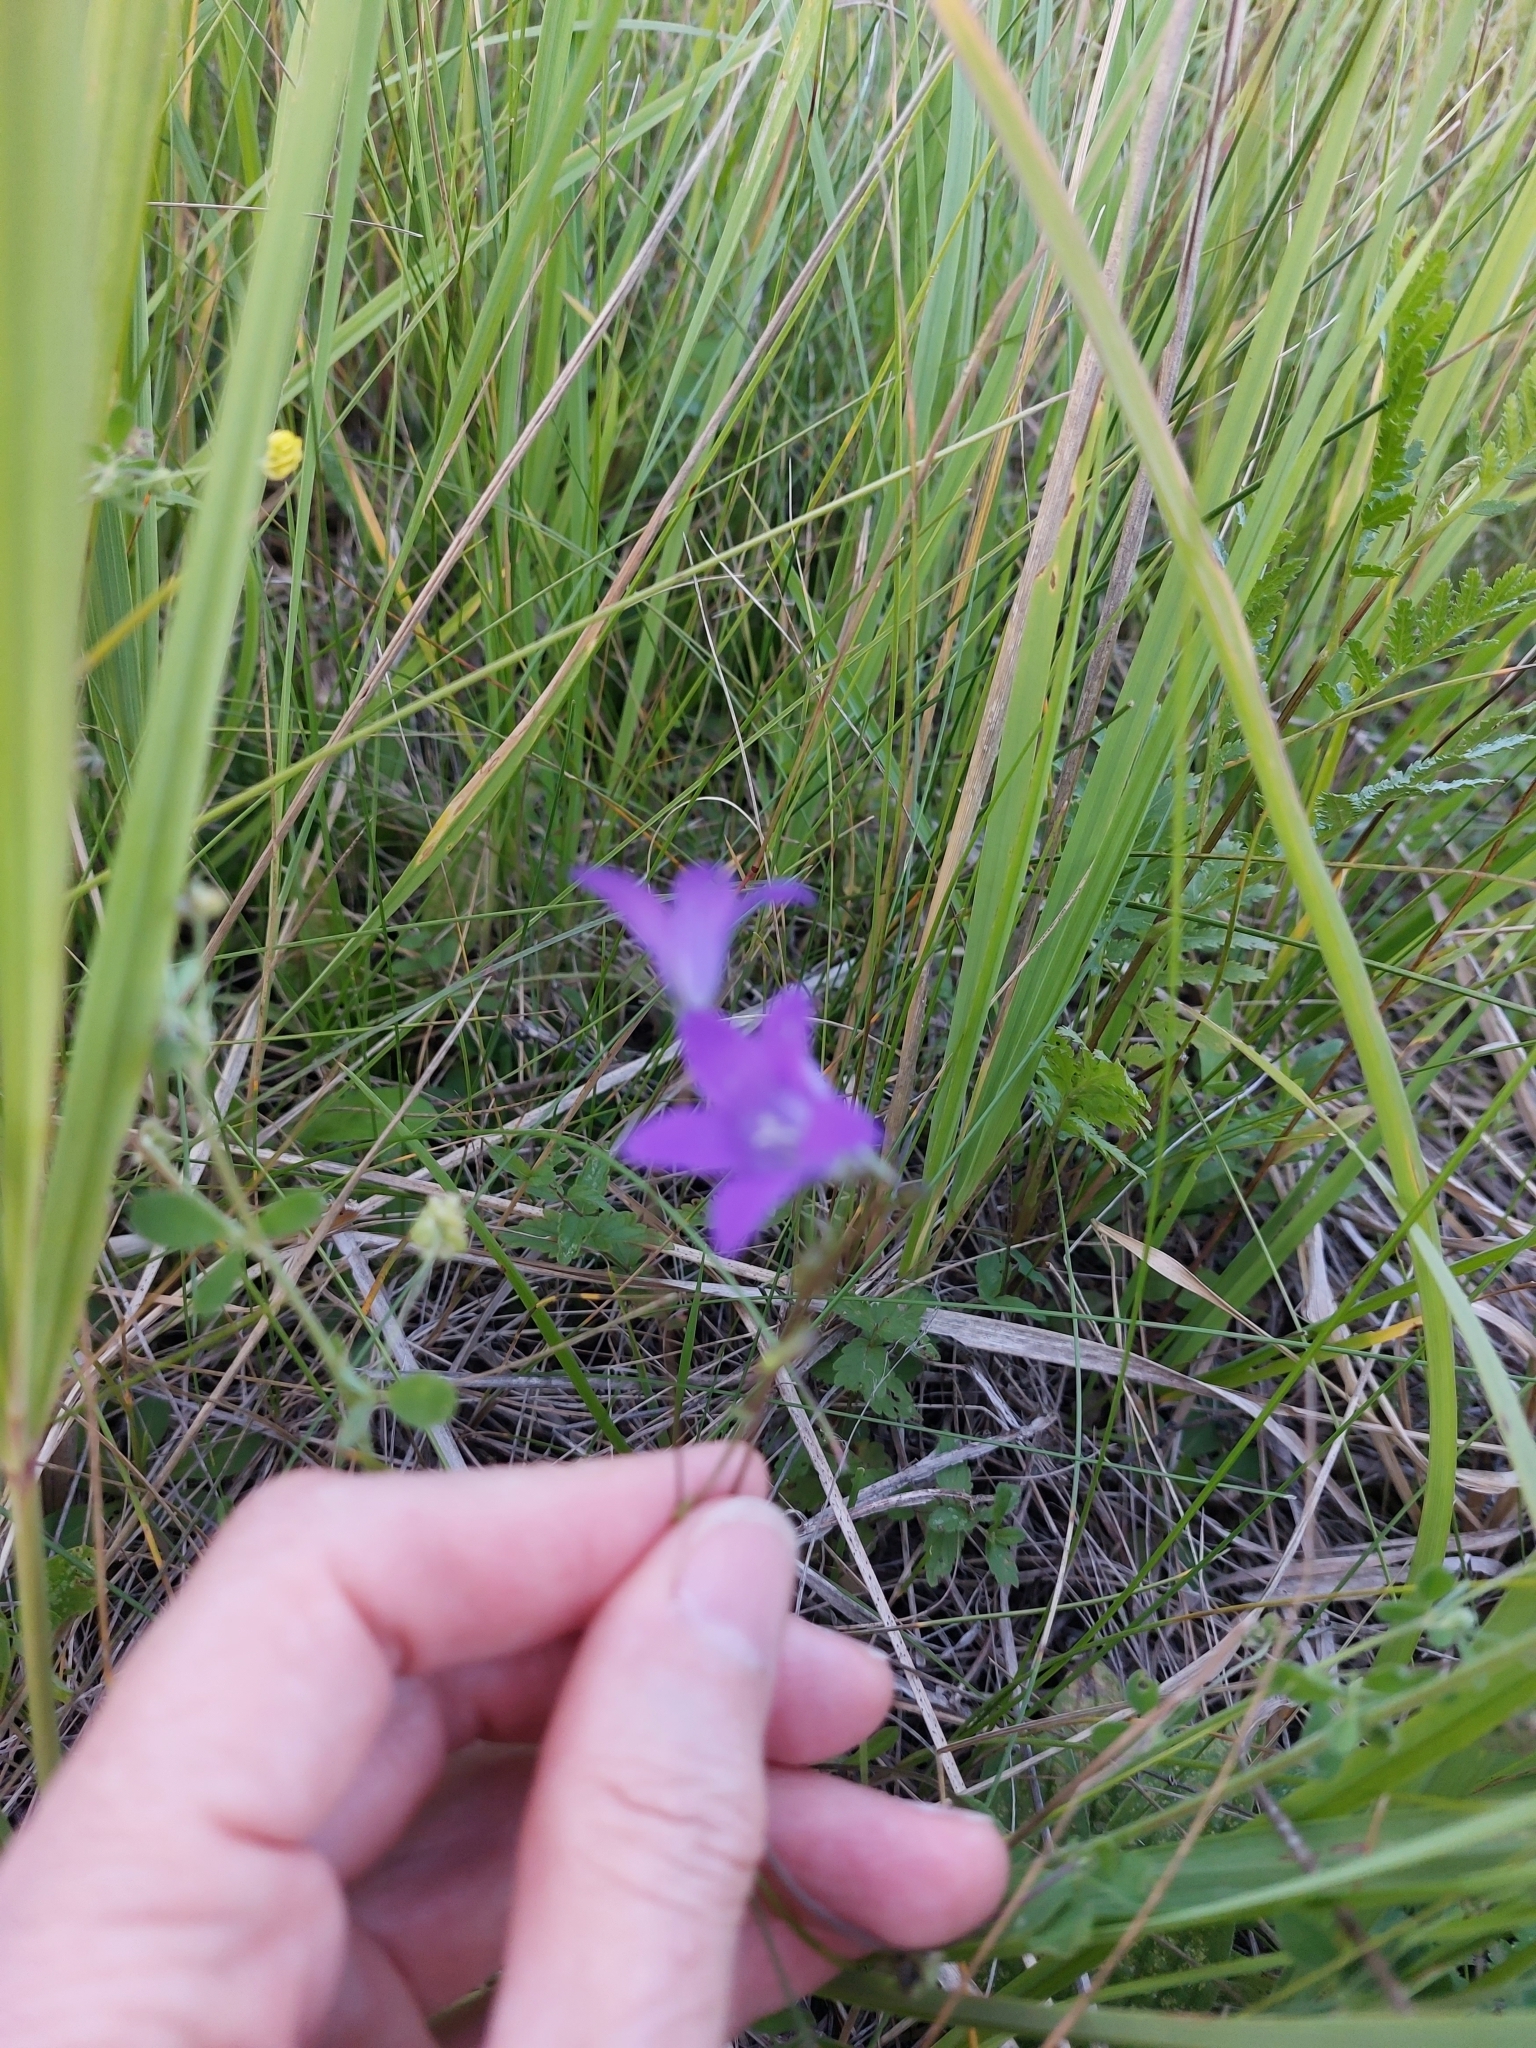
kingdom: Plantae
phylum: Tracheophyta
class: Magnoliopsida
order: Asterales
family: Campanulaceae
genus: Campanula
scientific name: Campanula patula
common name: Spreading bellflower
